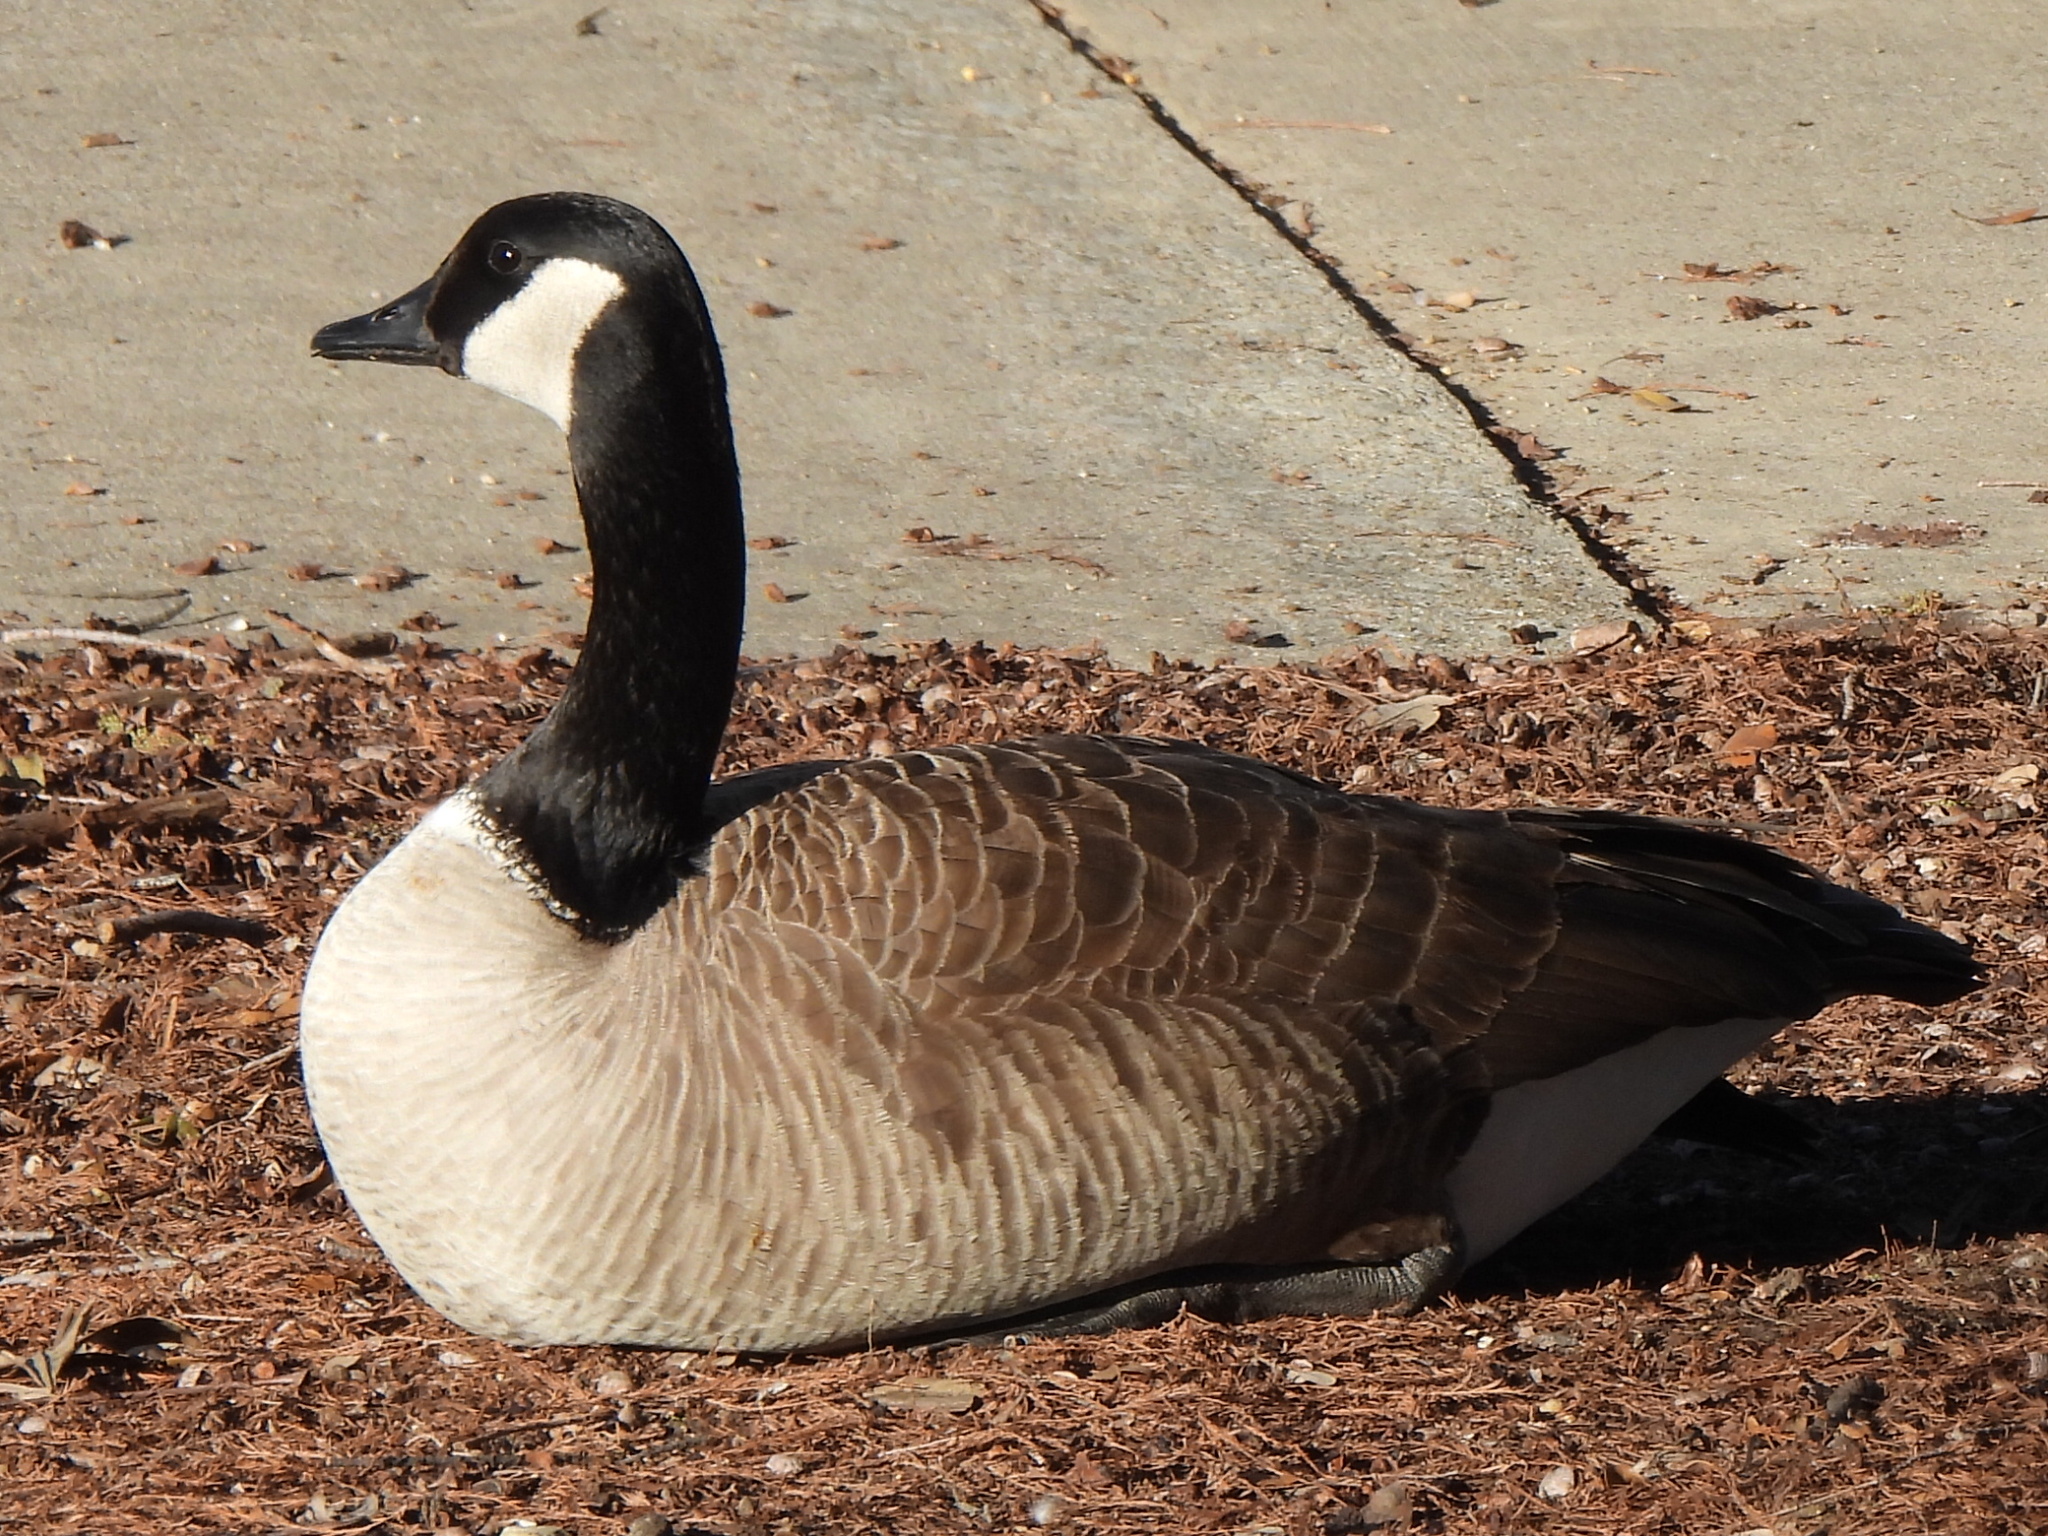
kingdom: Animalia
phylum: Chordata
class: Aves
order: Anseriformes
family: Anatidae
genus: Branta
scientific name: Branta canadensis
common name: Canada goose
